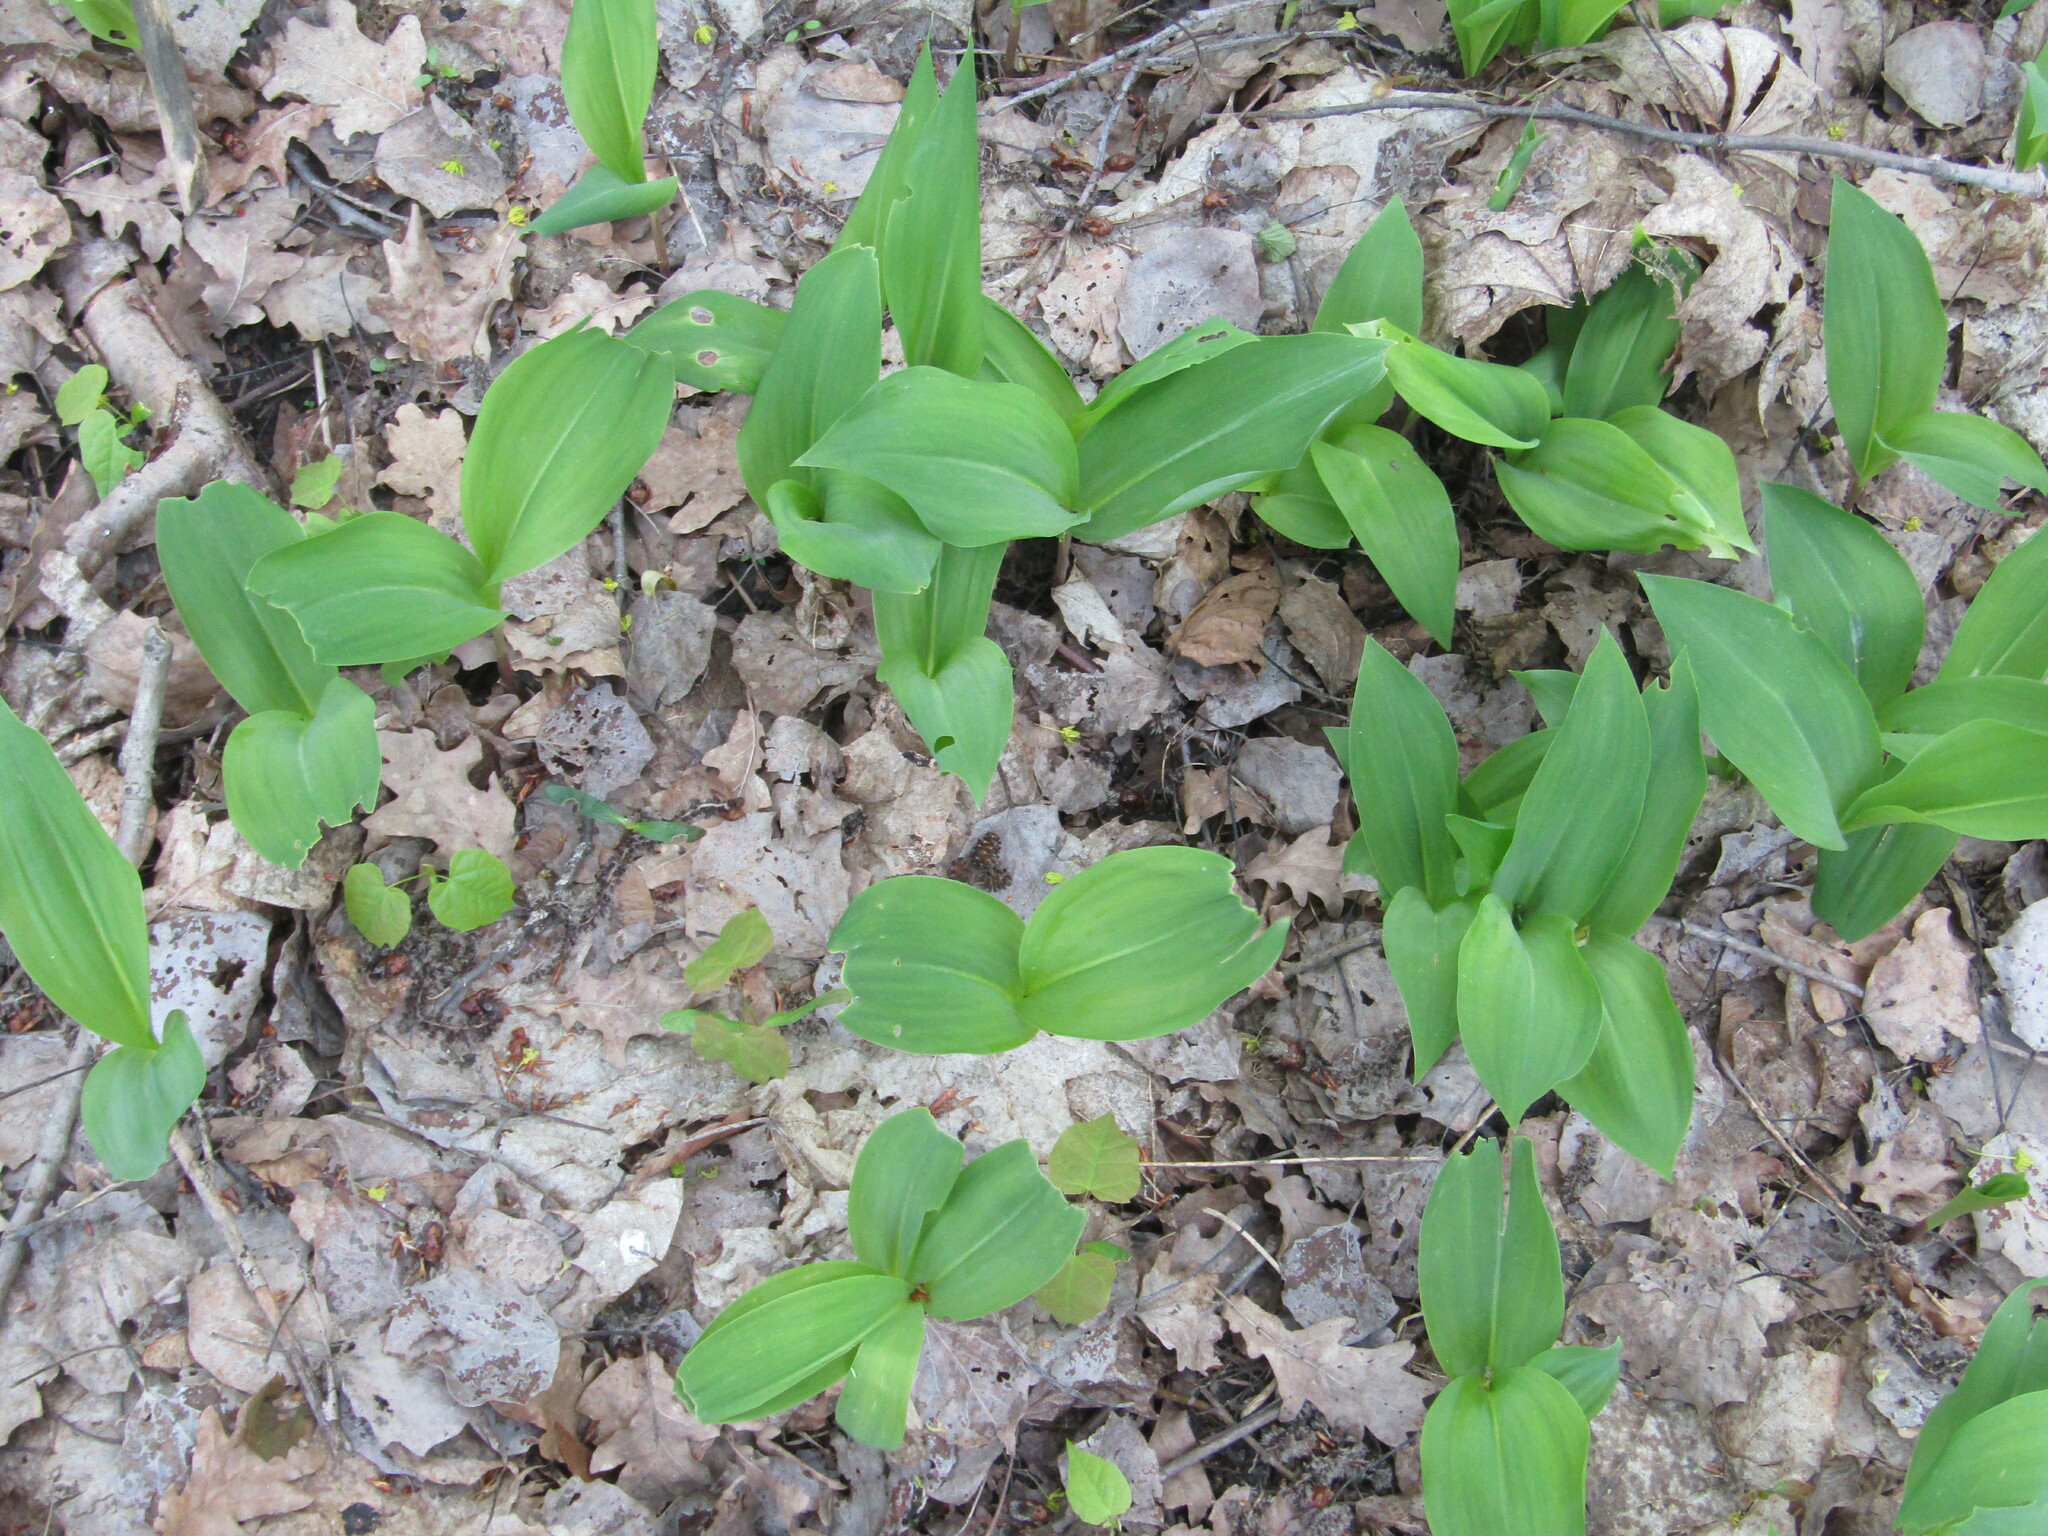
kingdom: Plantae
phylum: Tracheophyta
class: Liliopsida
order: Asparagales
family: Asparagaceae
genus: Convallaria
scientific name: Convallaria majalis
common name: Lily-of-the-valley
